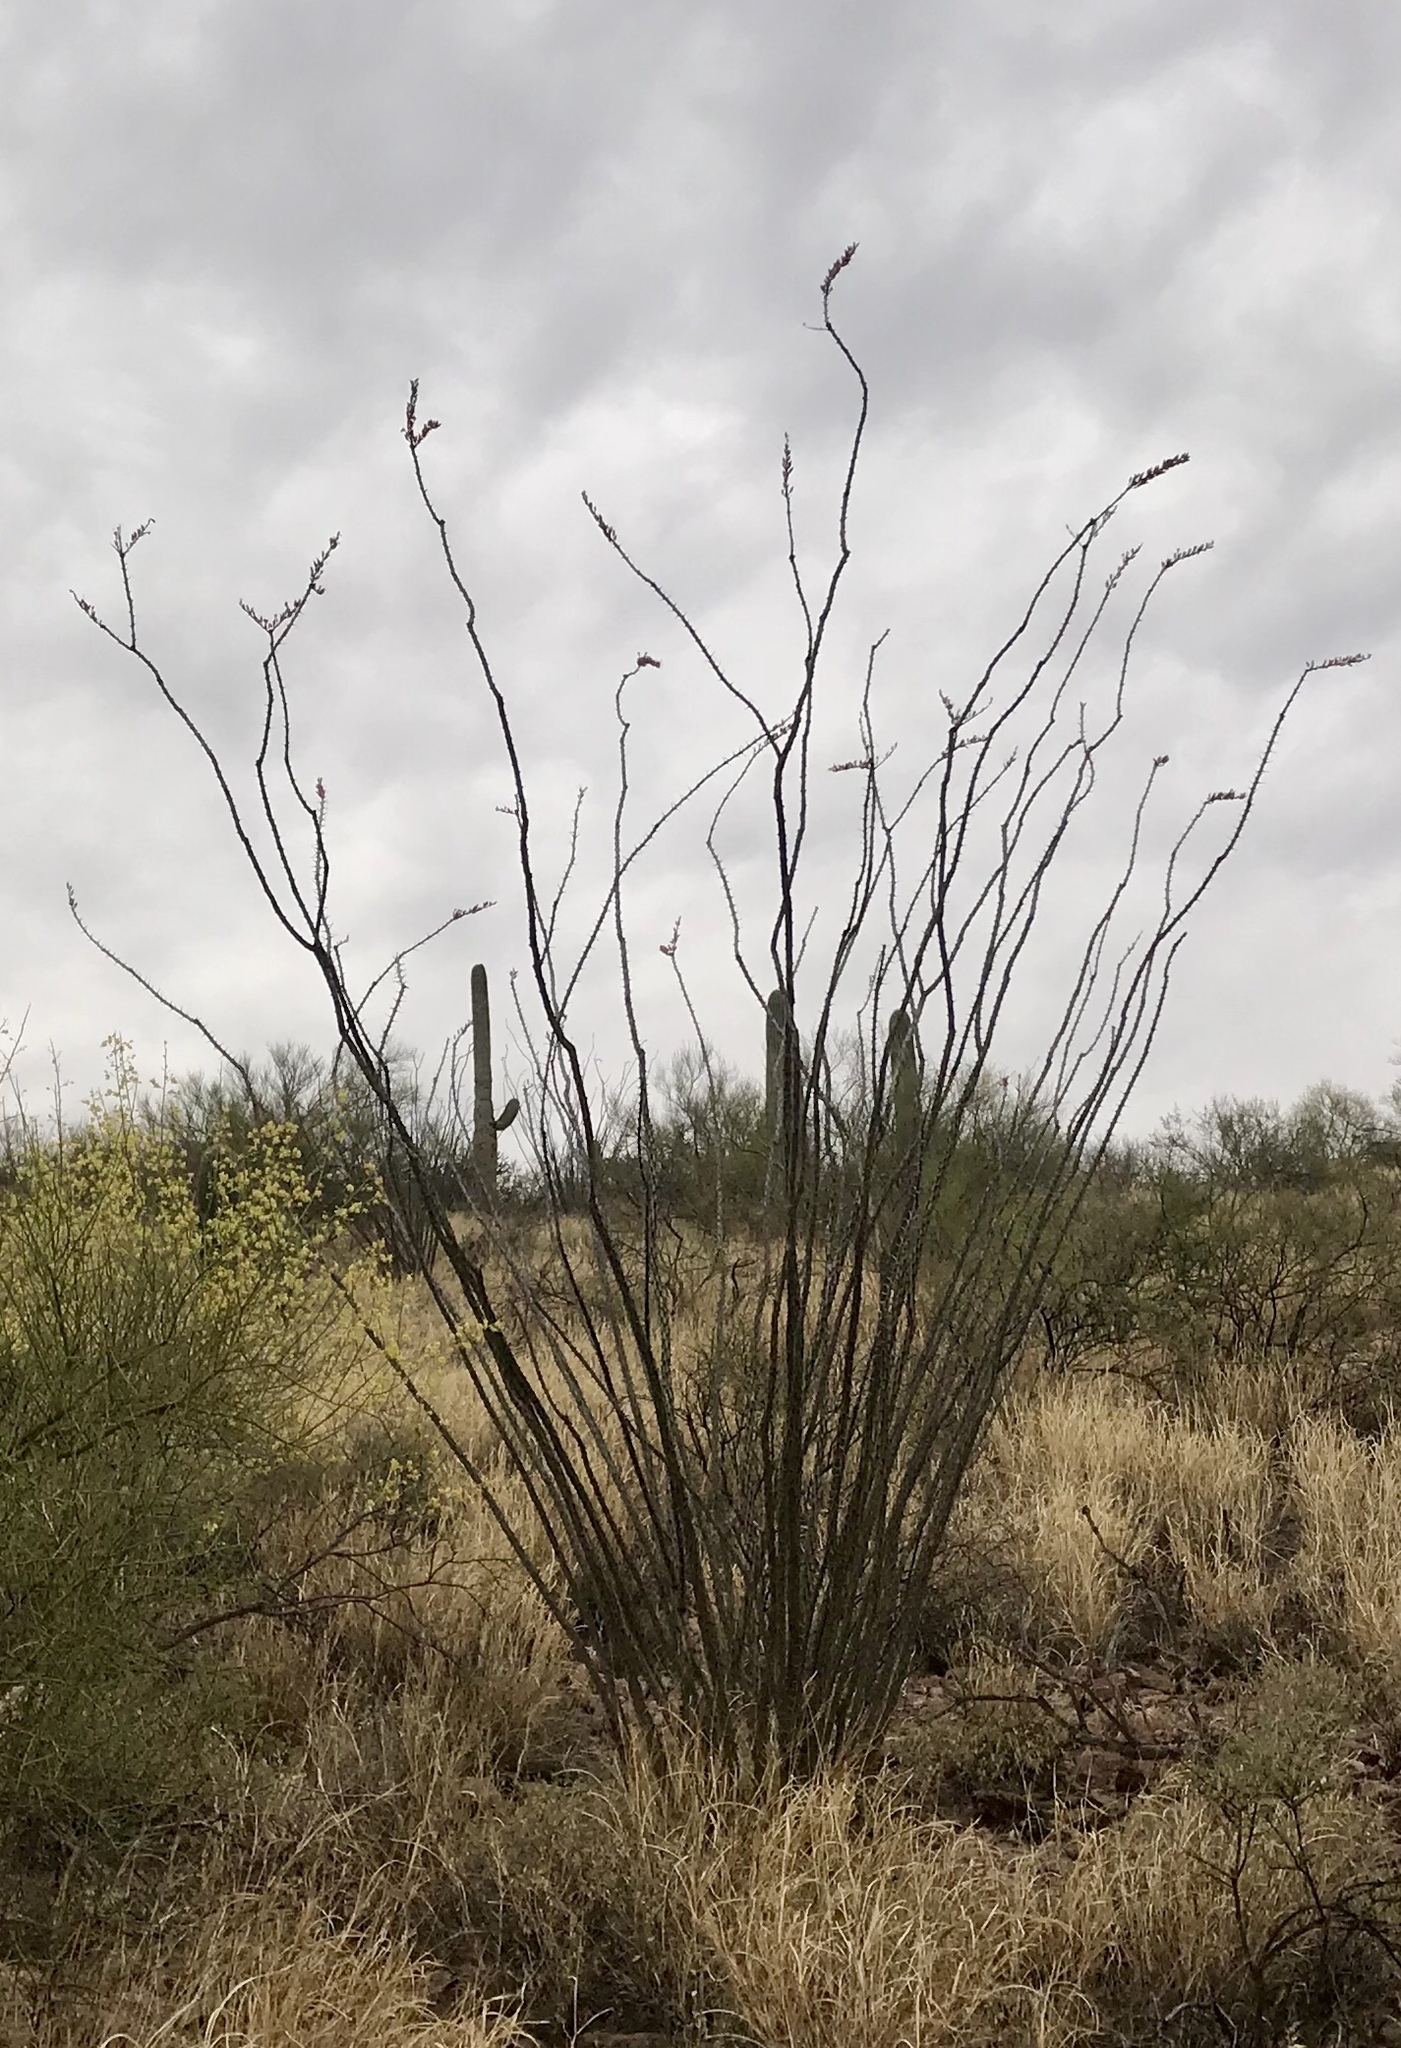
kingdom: Plantae
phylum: Tracheophyta
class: Magnoliopsida
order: Ericales
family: Fouquieriaceae
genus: Fouquieria
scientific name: Fouquieria splendens
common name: Vine-cactus
